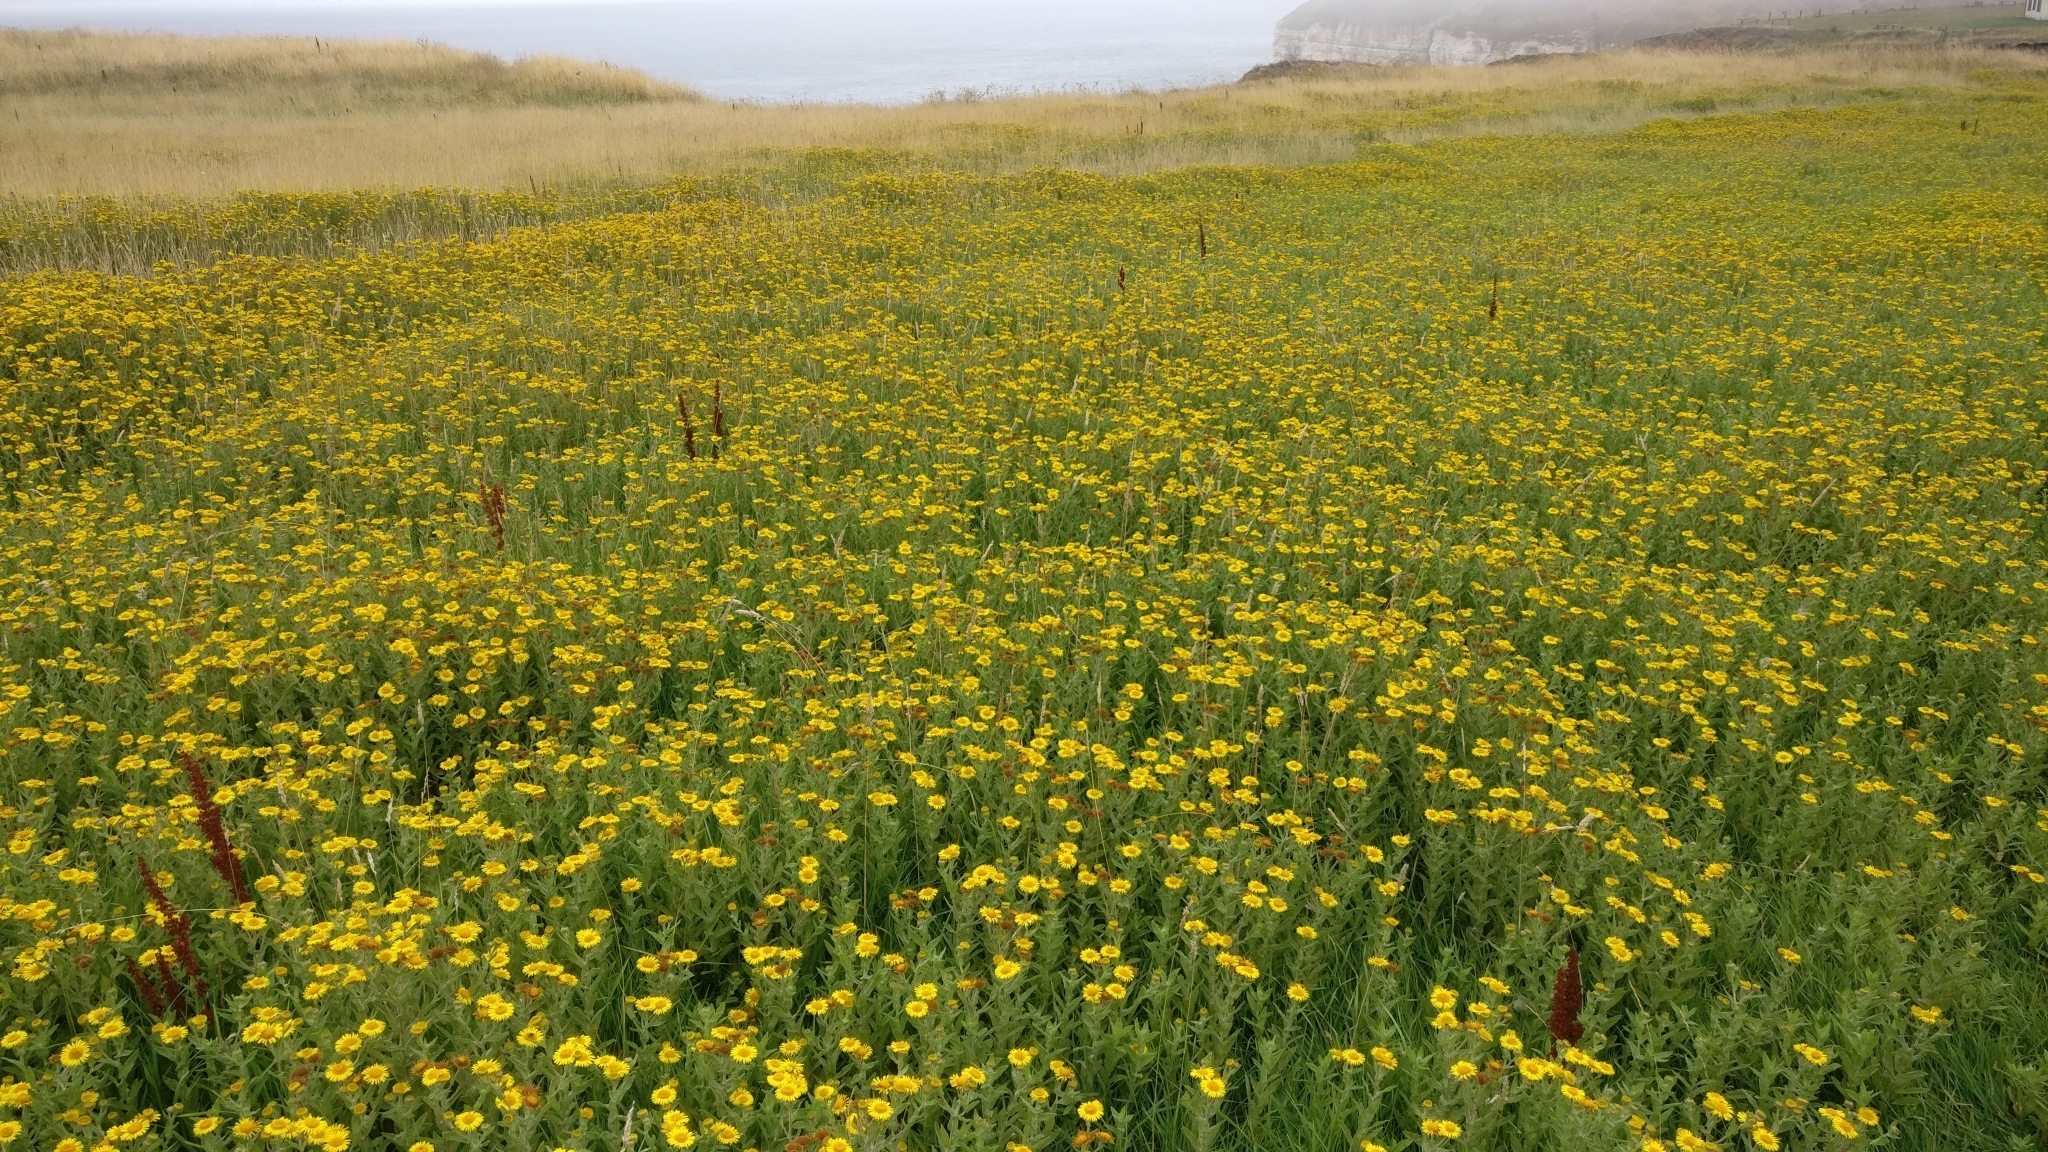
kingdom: Plantae
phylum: Tracheophyta
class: Magnoliopsida
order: Asterales
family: Asteraceae
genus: Pulicaria
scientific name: Pulicaria dysenterica
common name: Common fleabane
